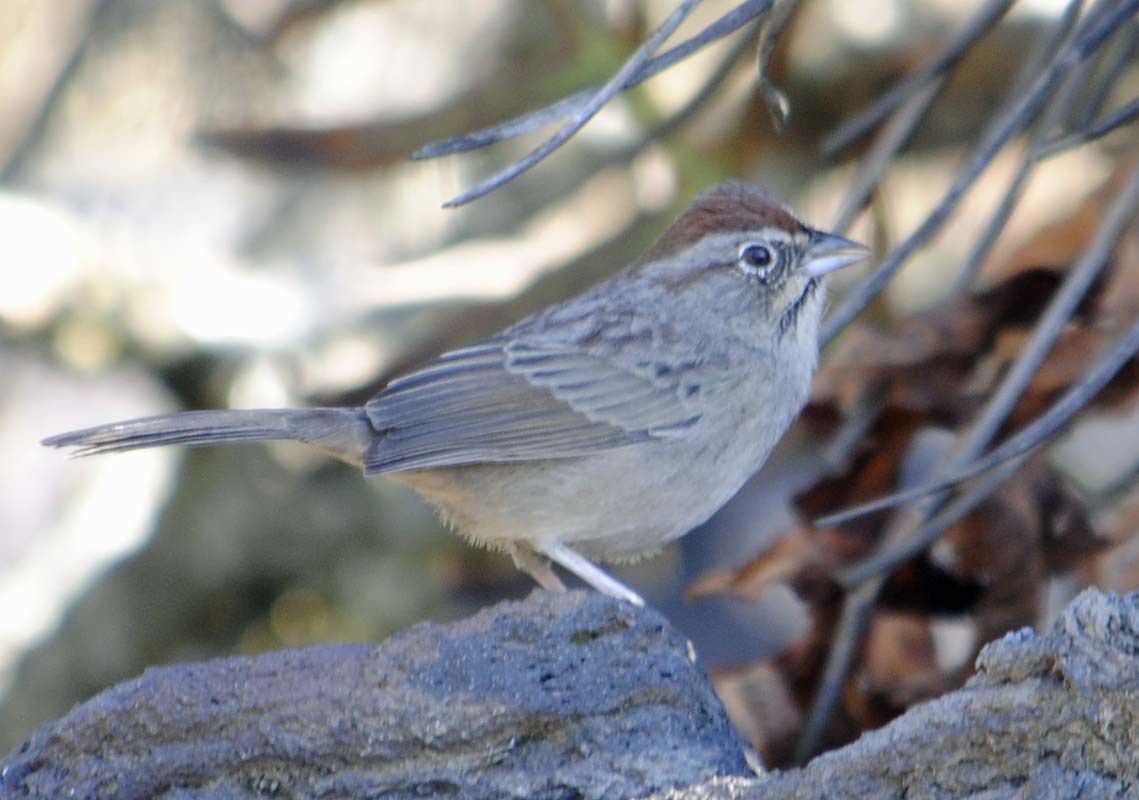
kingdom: Animalia
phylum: Chordata
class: Aves
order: Passeriformes
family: Passerellidae
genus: Aimophila
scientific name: Aimophila ruficeps
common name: Rufous-crowned sparrow
